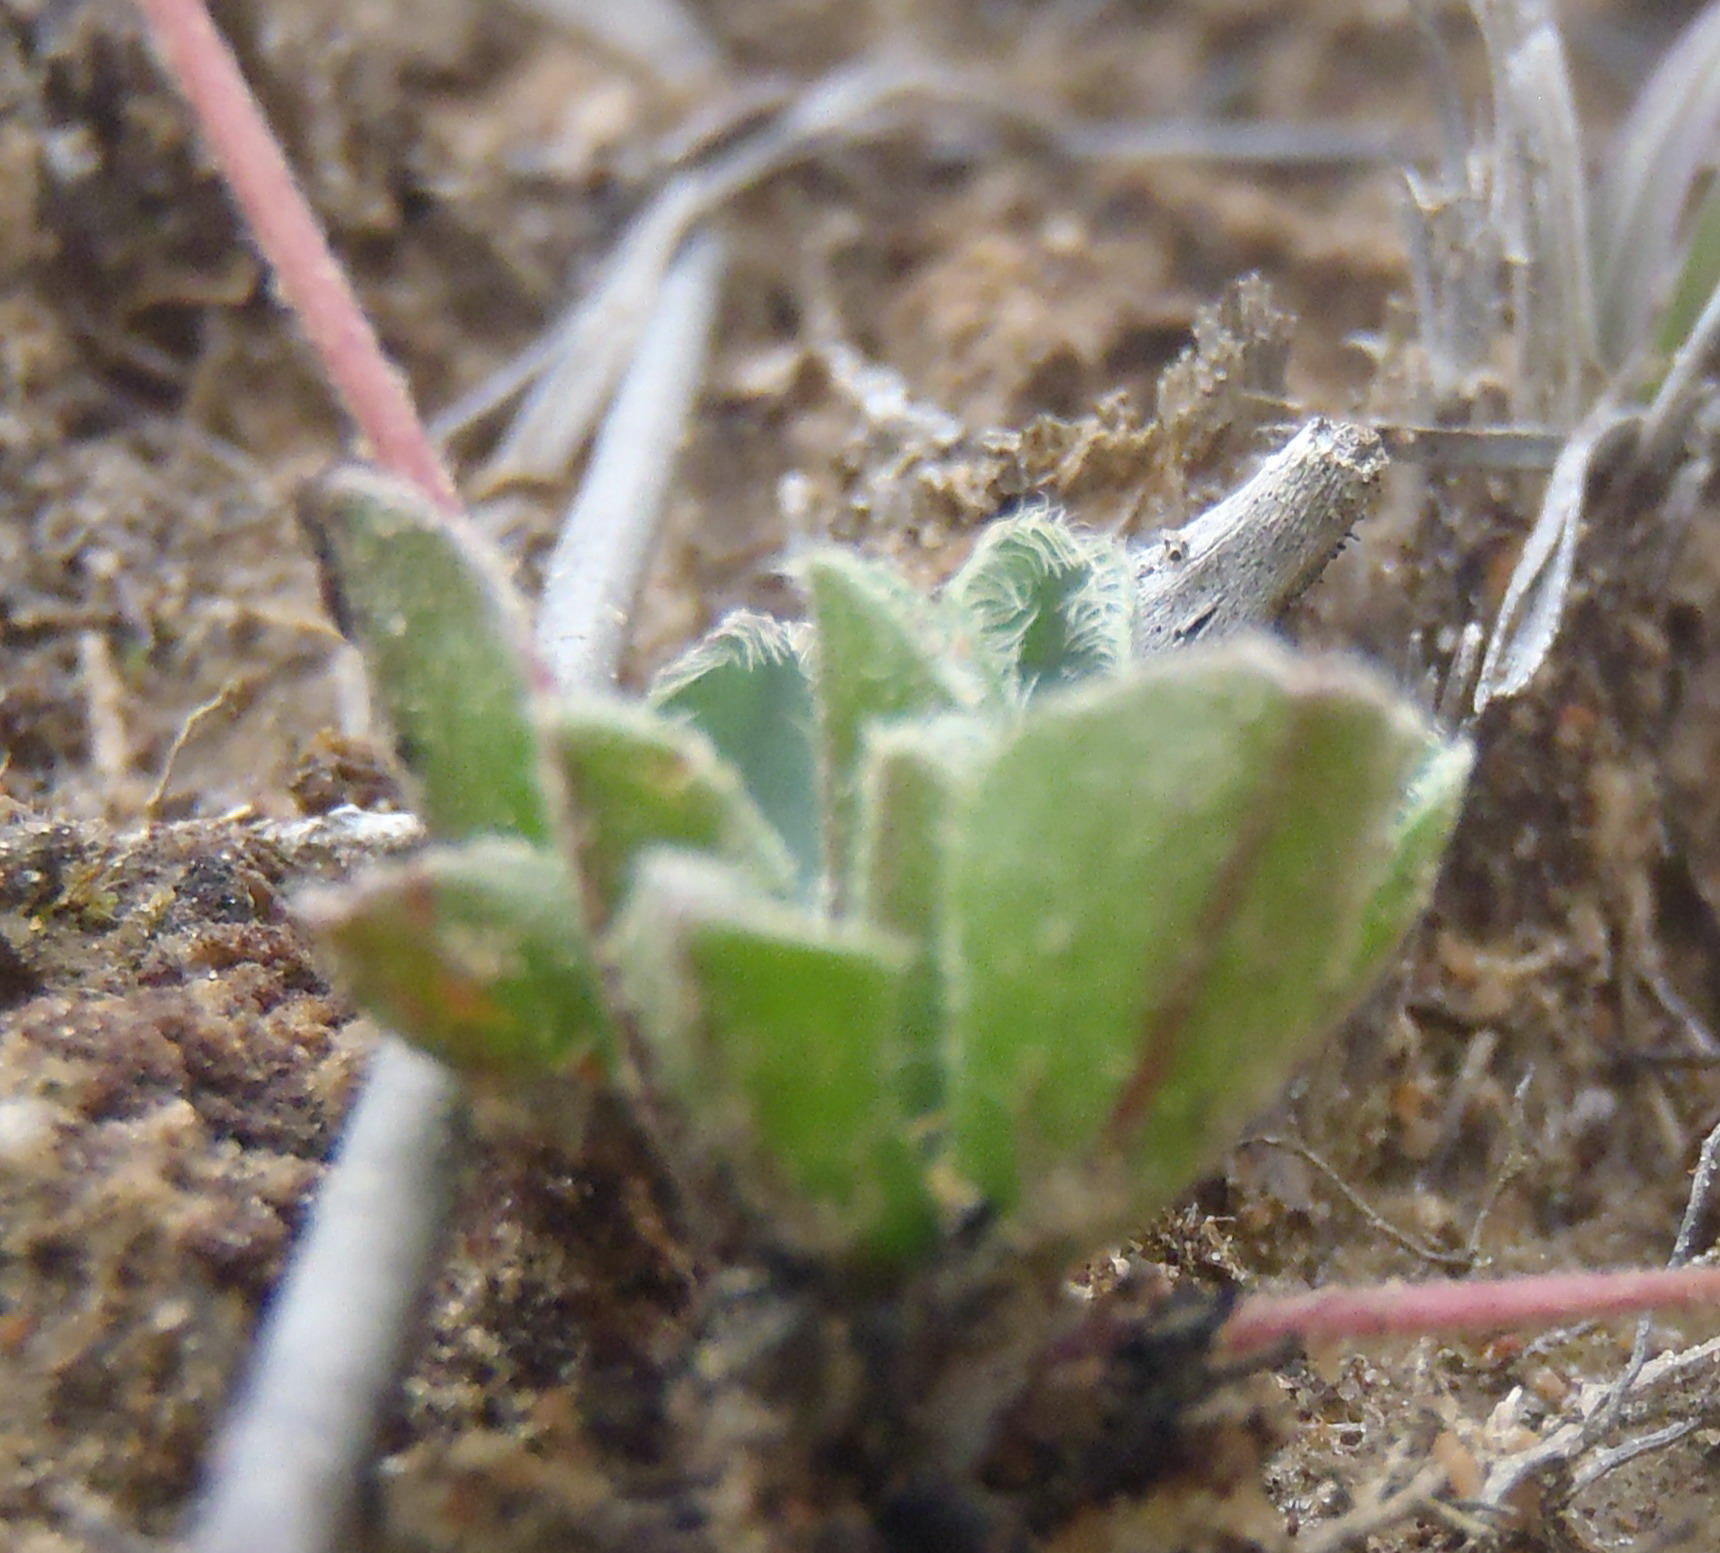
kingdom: Plantae
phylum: Tracheophyta
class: Magnoliopsida
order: Oxalidales
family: Oxalidaceae
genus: Oxalis
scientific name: Oxalis imbricata
